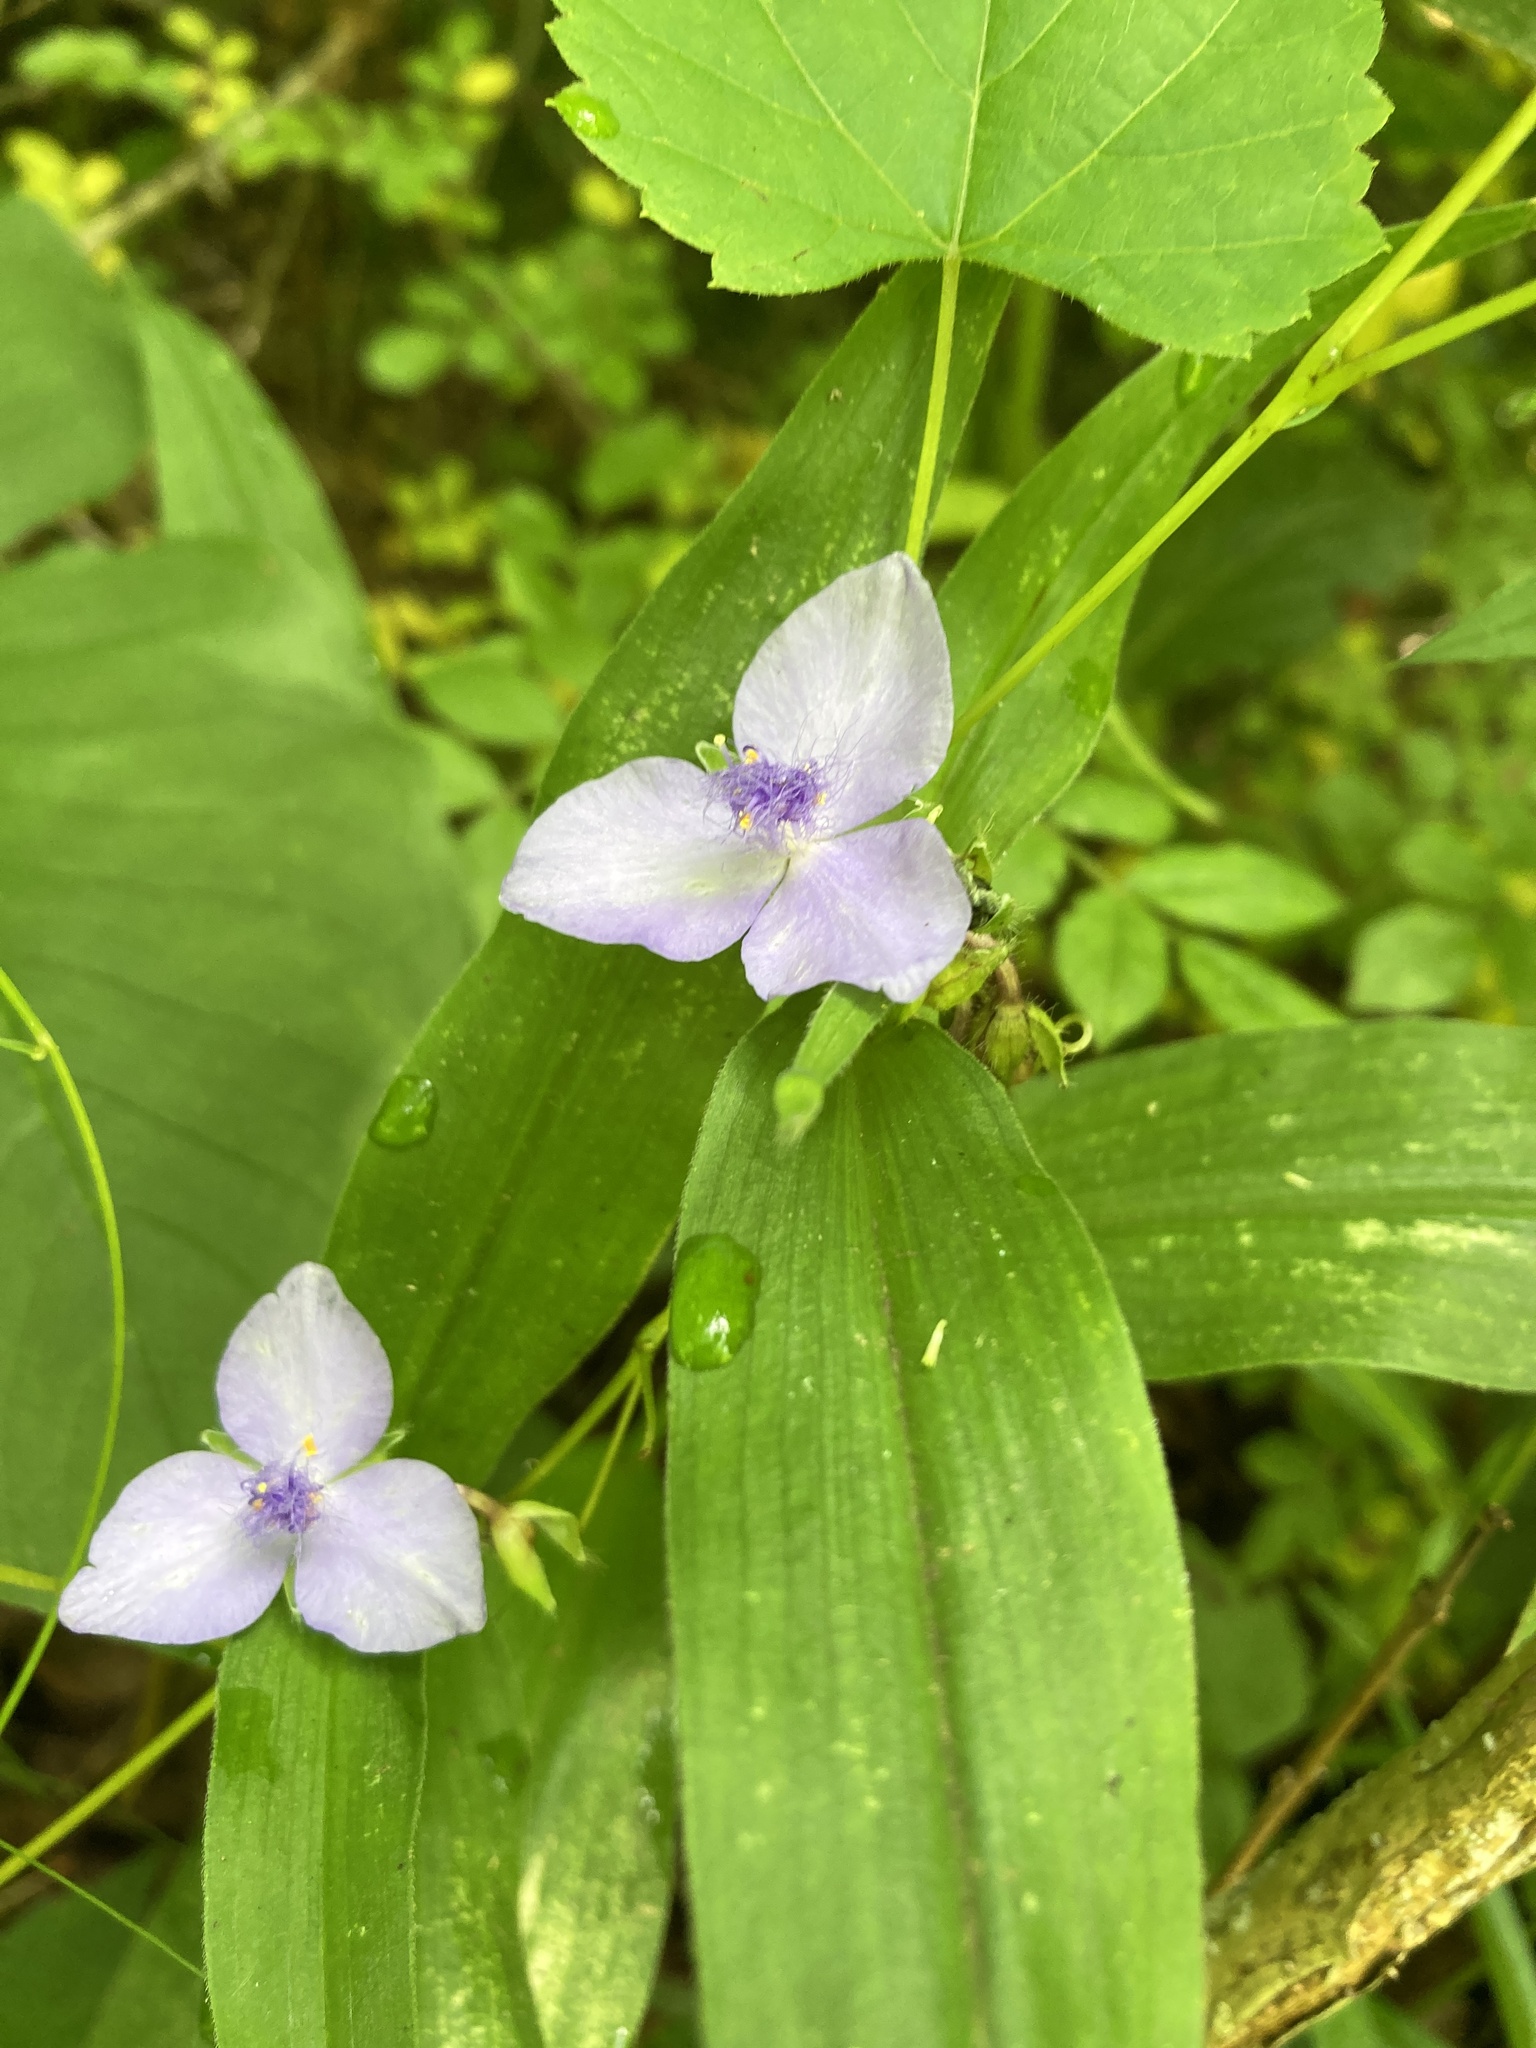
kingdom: Plantae
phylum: Tracheophyta
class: Liliopsida
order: Commelinales
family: Commelinaceae
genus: Tradescantia
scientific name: Tradescantia subaspera
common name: Wide-leaf spiderwort
